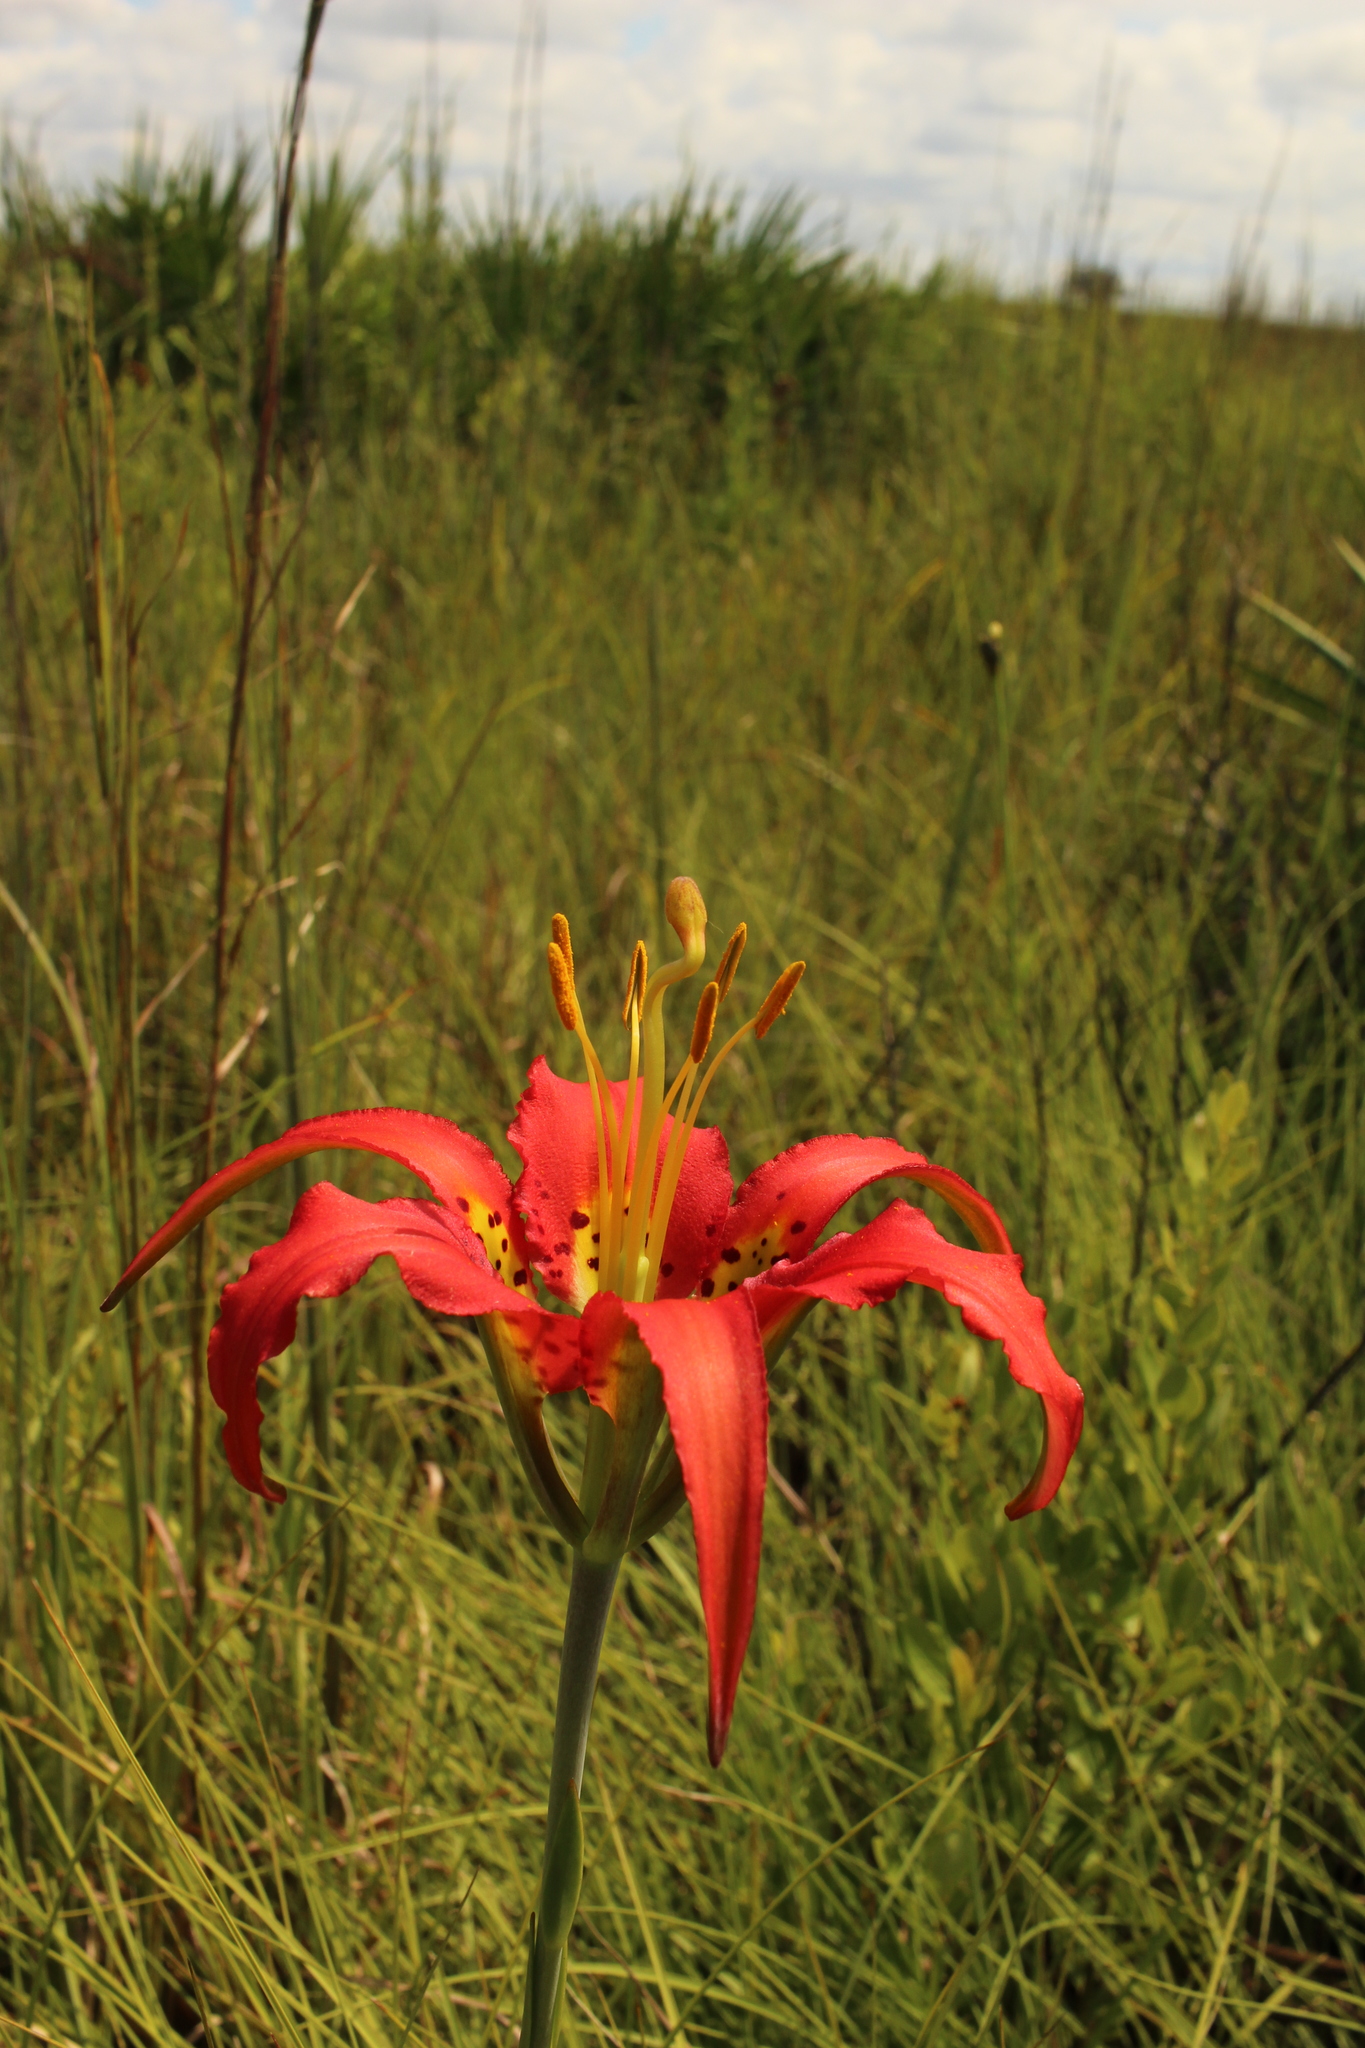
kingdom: Plantae
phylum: Tracheophyta
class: Liliopsida
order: Liliales
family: Liliaceae
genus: Lilium
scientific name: Lilium catesbaei
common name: Catesby's lily
